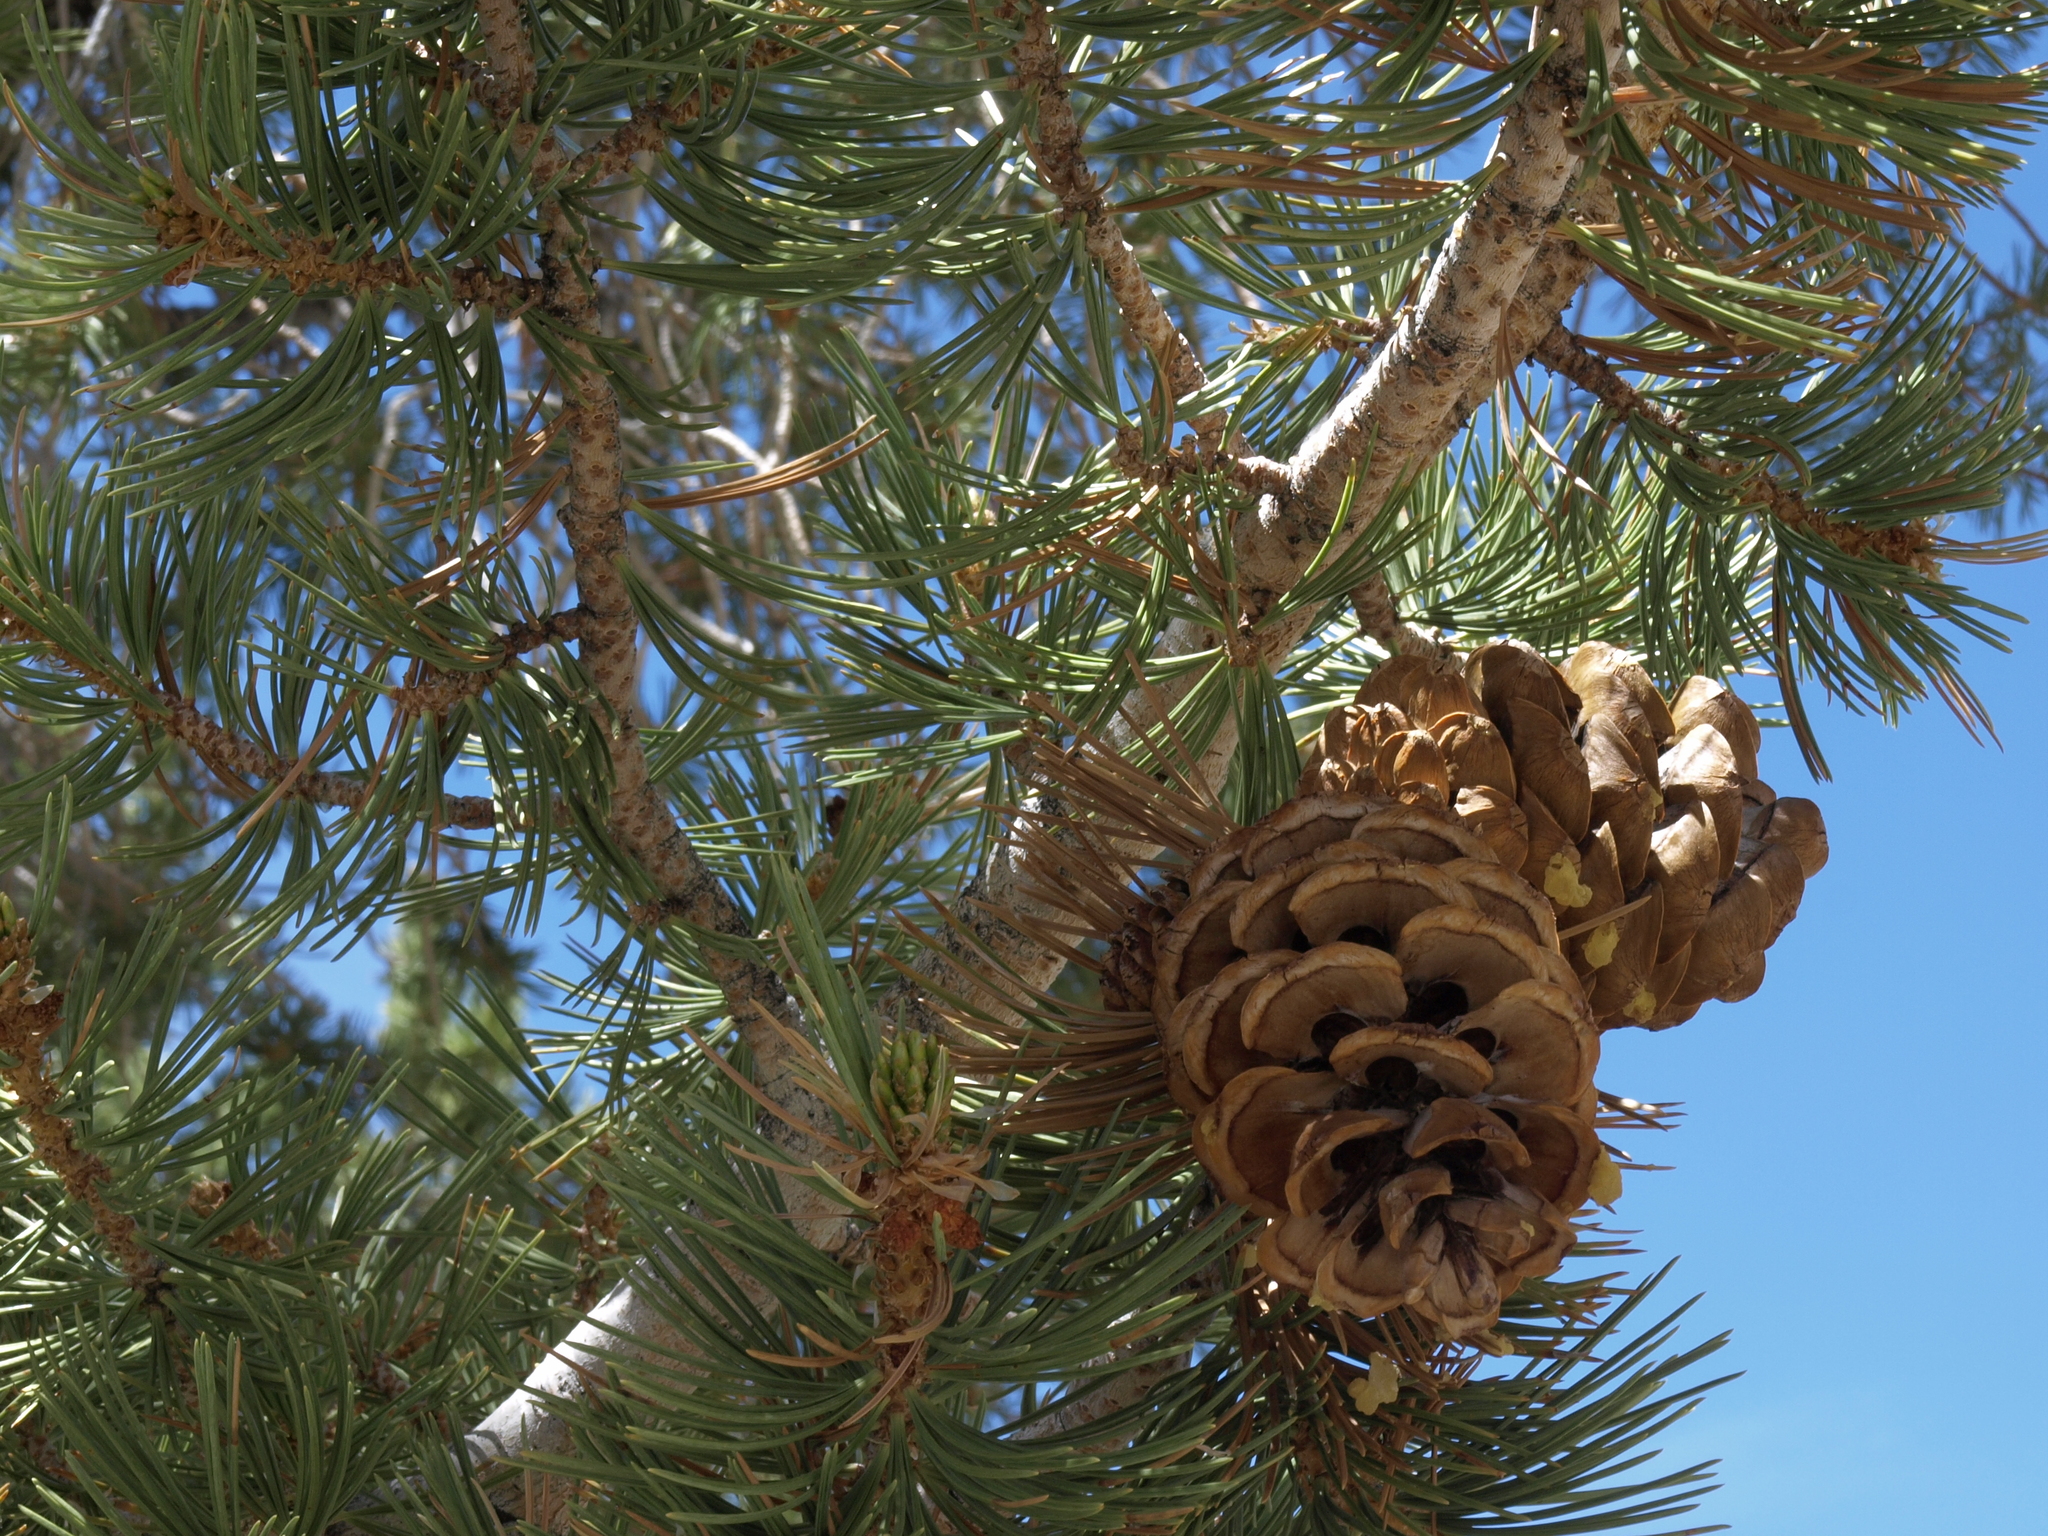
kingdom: Plantae
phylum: Tracheophyta
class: Pinopsida
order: Pinales
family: Pinaceae
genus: Pinus
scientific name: Pinus flexilis
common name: Limber pine
